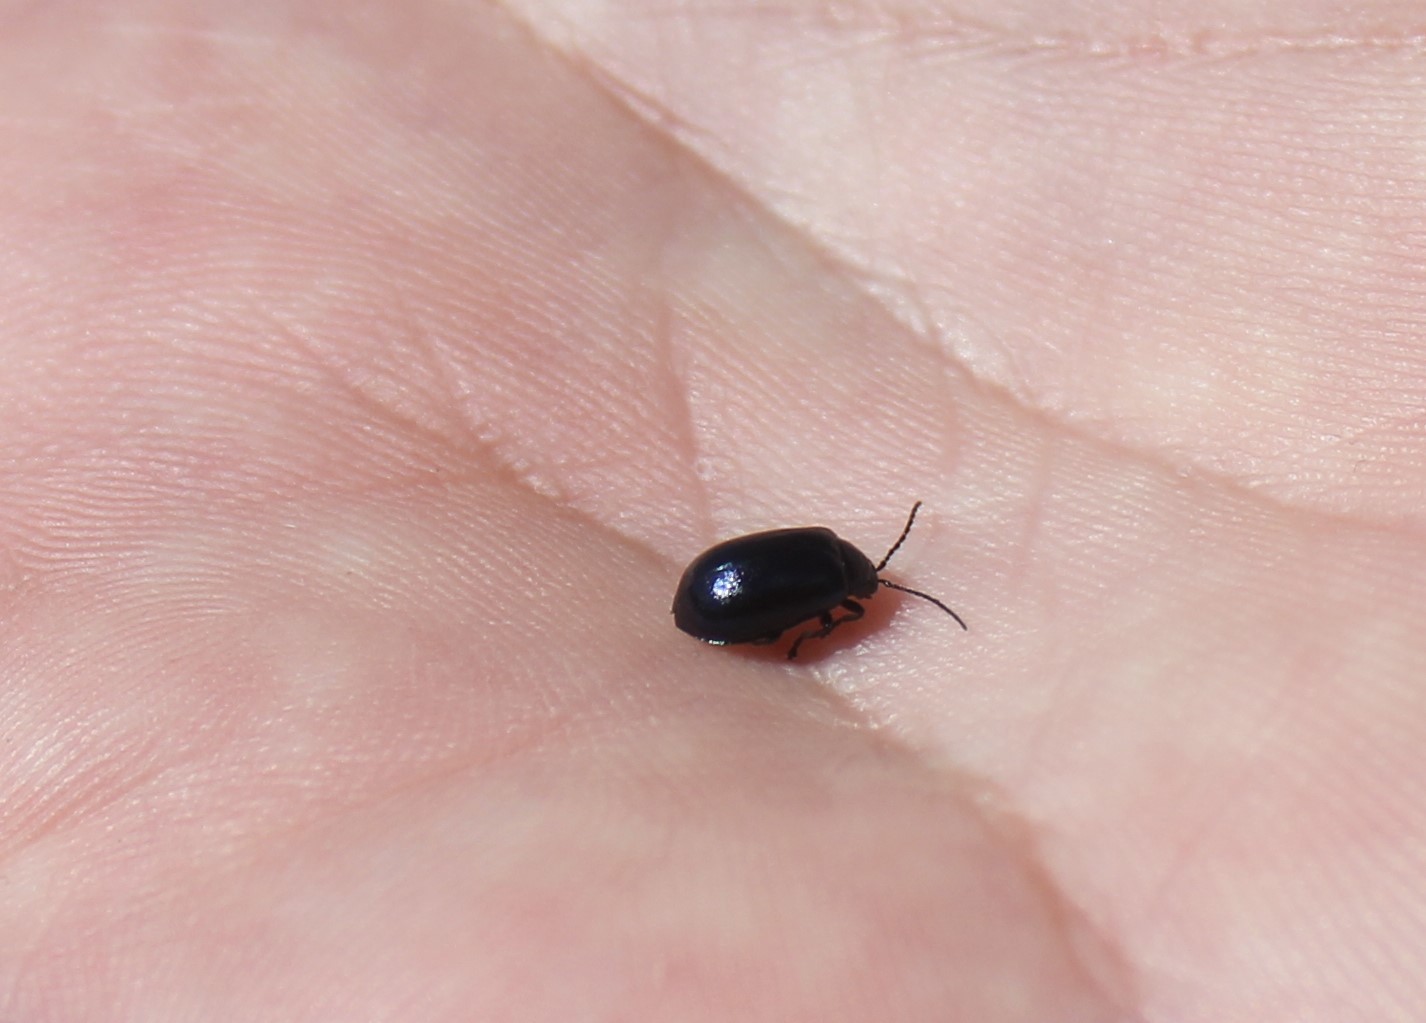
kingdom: Animalia
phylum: Arthropoda
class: Insecta
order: Coleoptera
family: Chrysomelidae
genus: Agelastica
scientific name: Agelastica alni
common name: Alder leaf beetle
